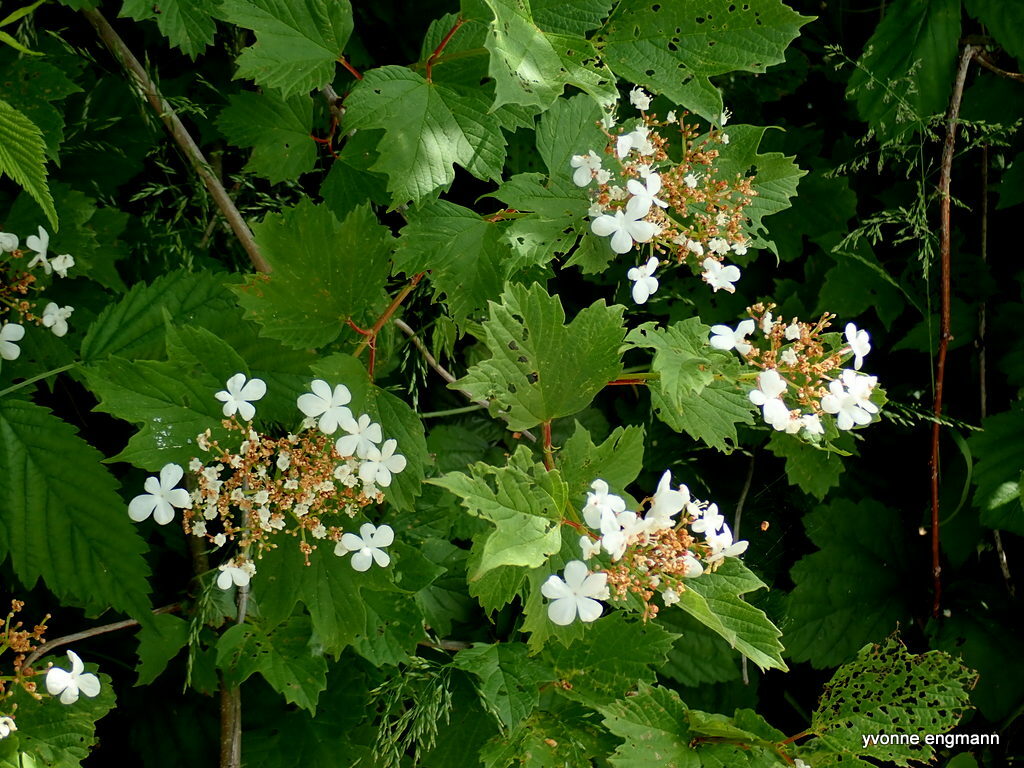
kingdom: Plantae
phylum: Tracheophyta
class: Magnoliopsida
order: Dipsacales
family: Viburnaceae
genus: Viburnum
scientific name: Viburnum opulus
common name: Guelder-rose
